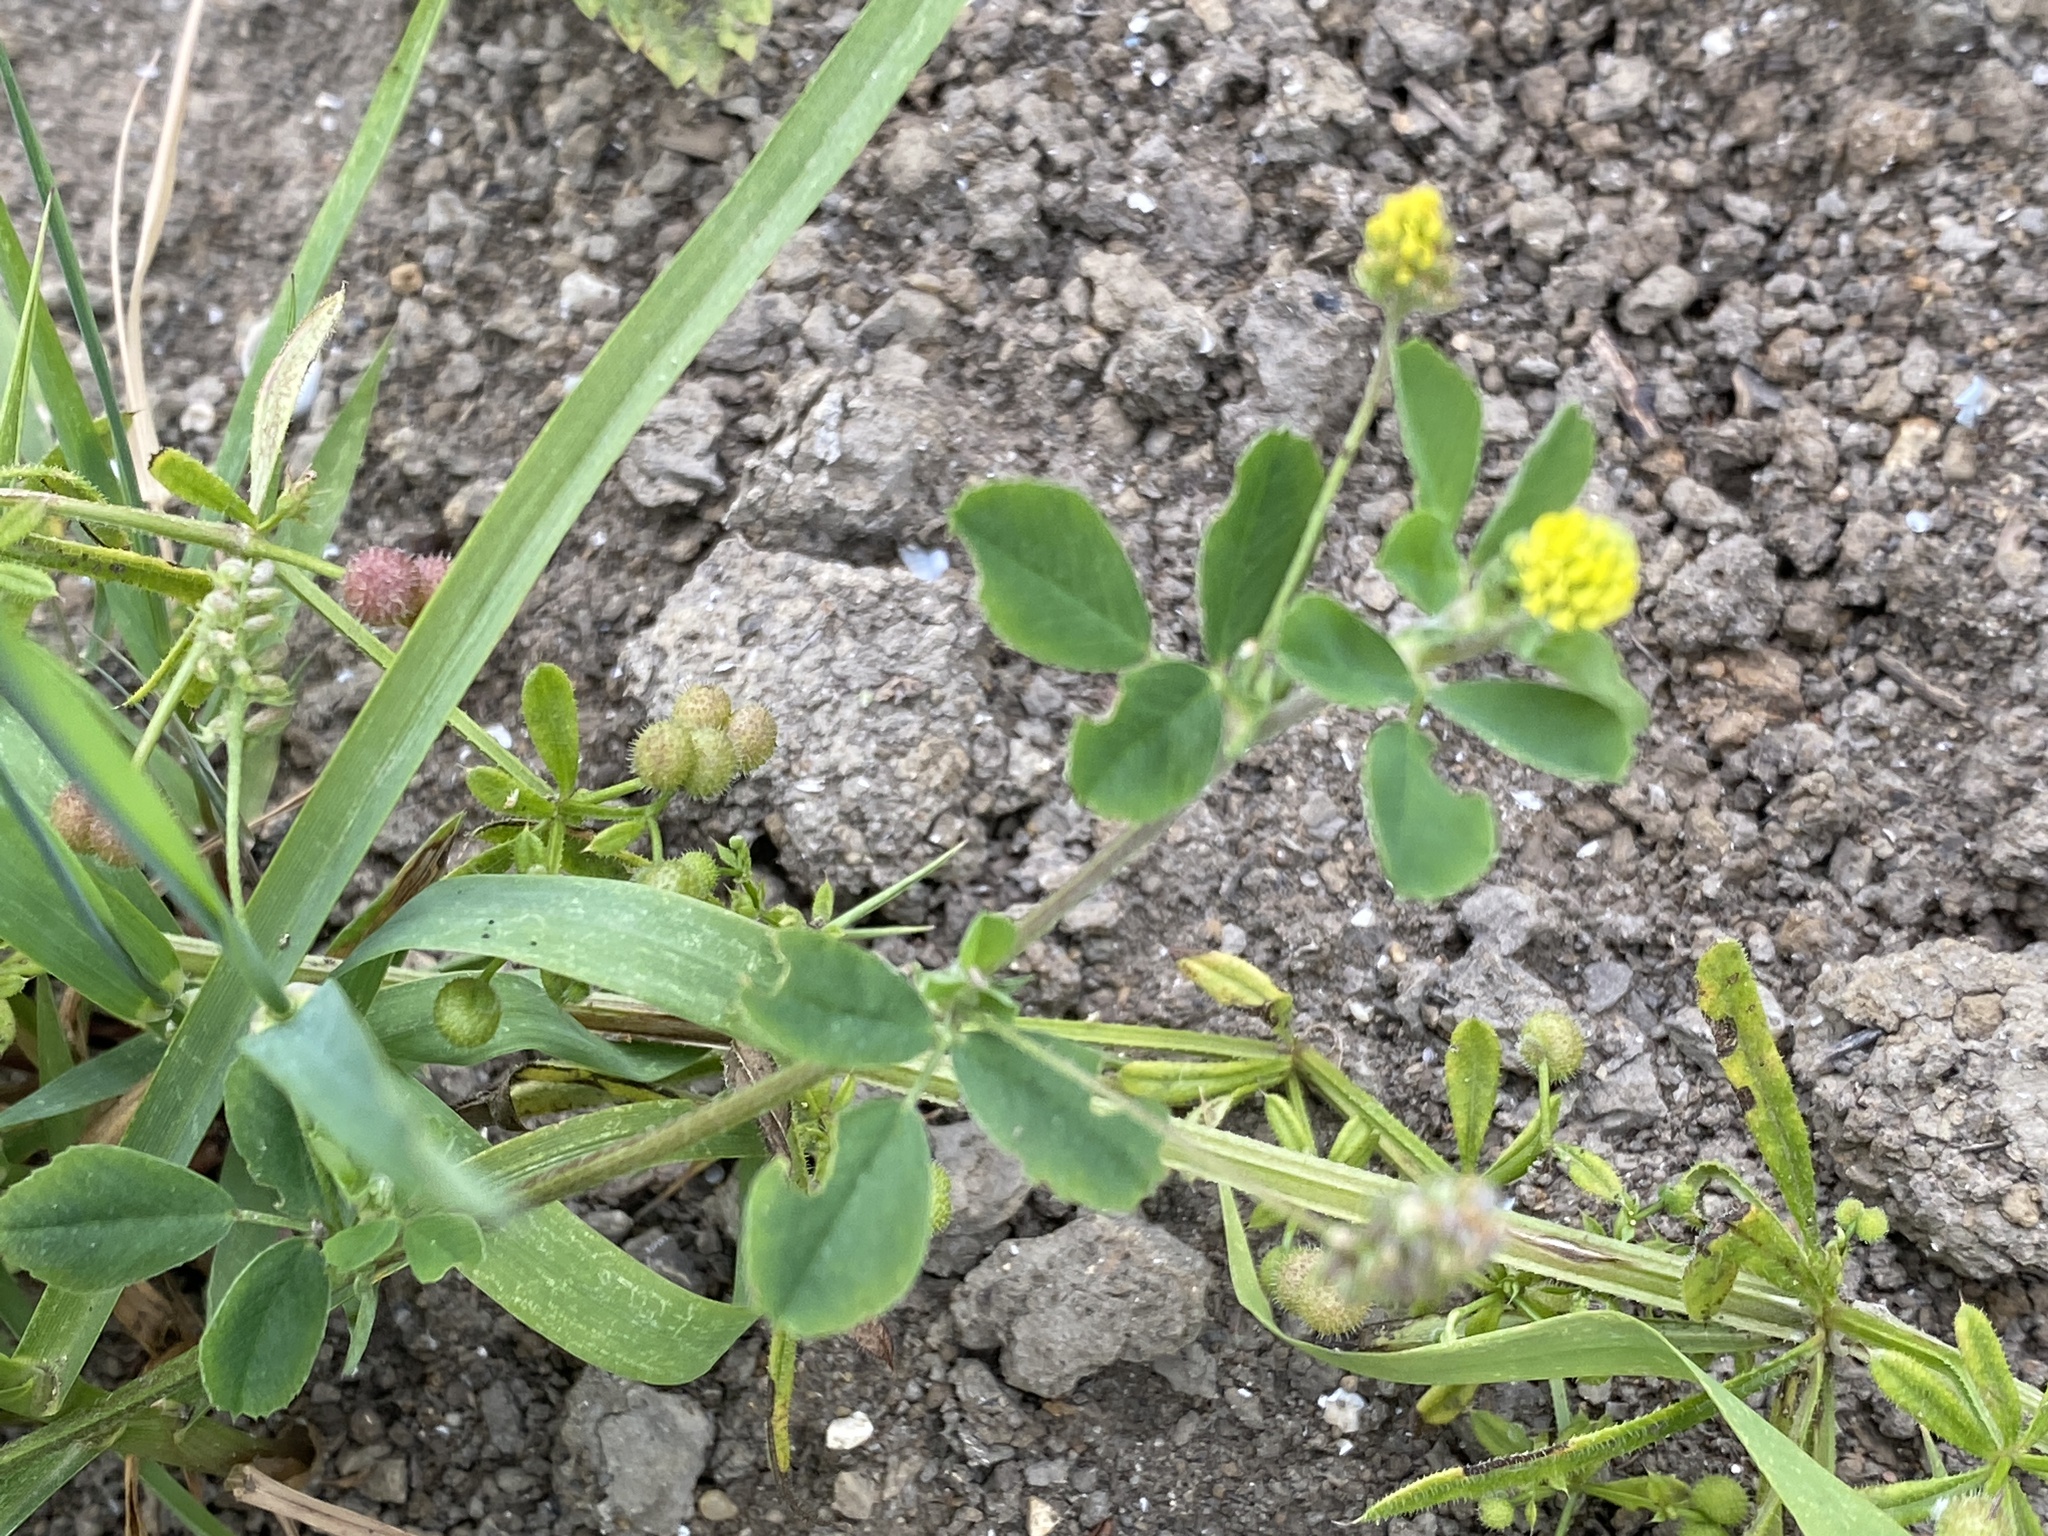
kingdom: Plantae
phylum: Tracheophyta
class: Magnoliopsida
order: Fabales
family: Fabaceae
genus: Medicago
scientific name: Medicago lupulina
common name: Black medick
